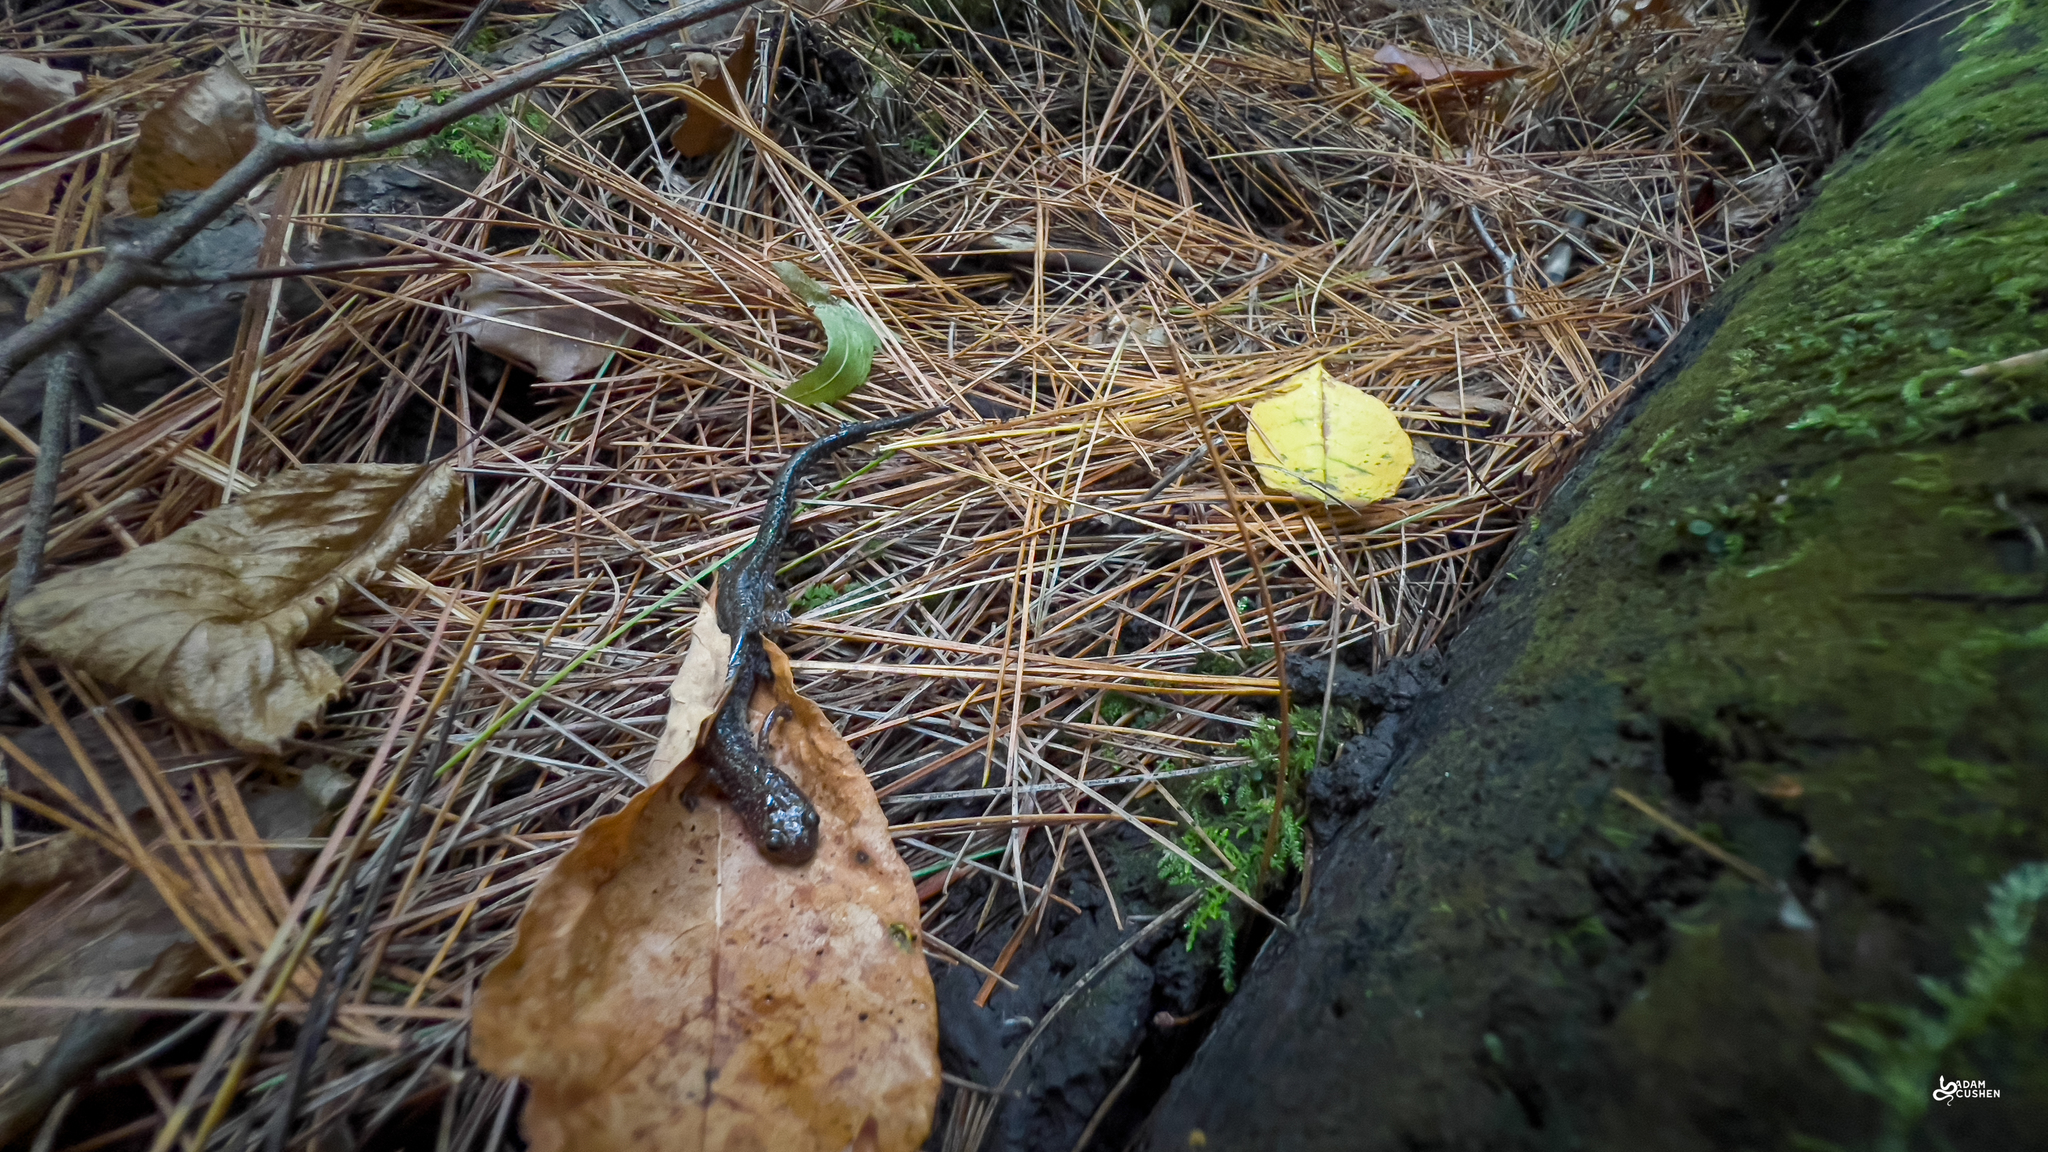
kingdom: Animalia
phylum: Chordata
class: Amphibia
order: Caudata
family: Plethodontidae
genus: Plethodon
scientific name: Plethodon cinereus
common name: Redback salamander
